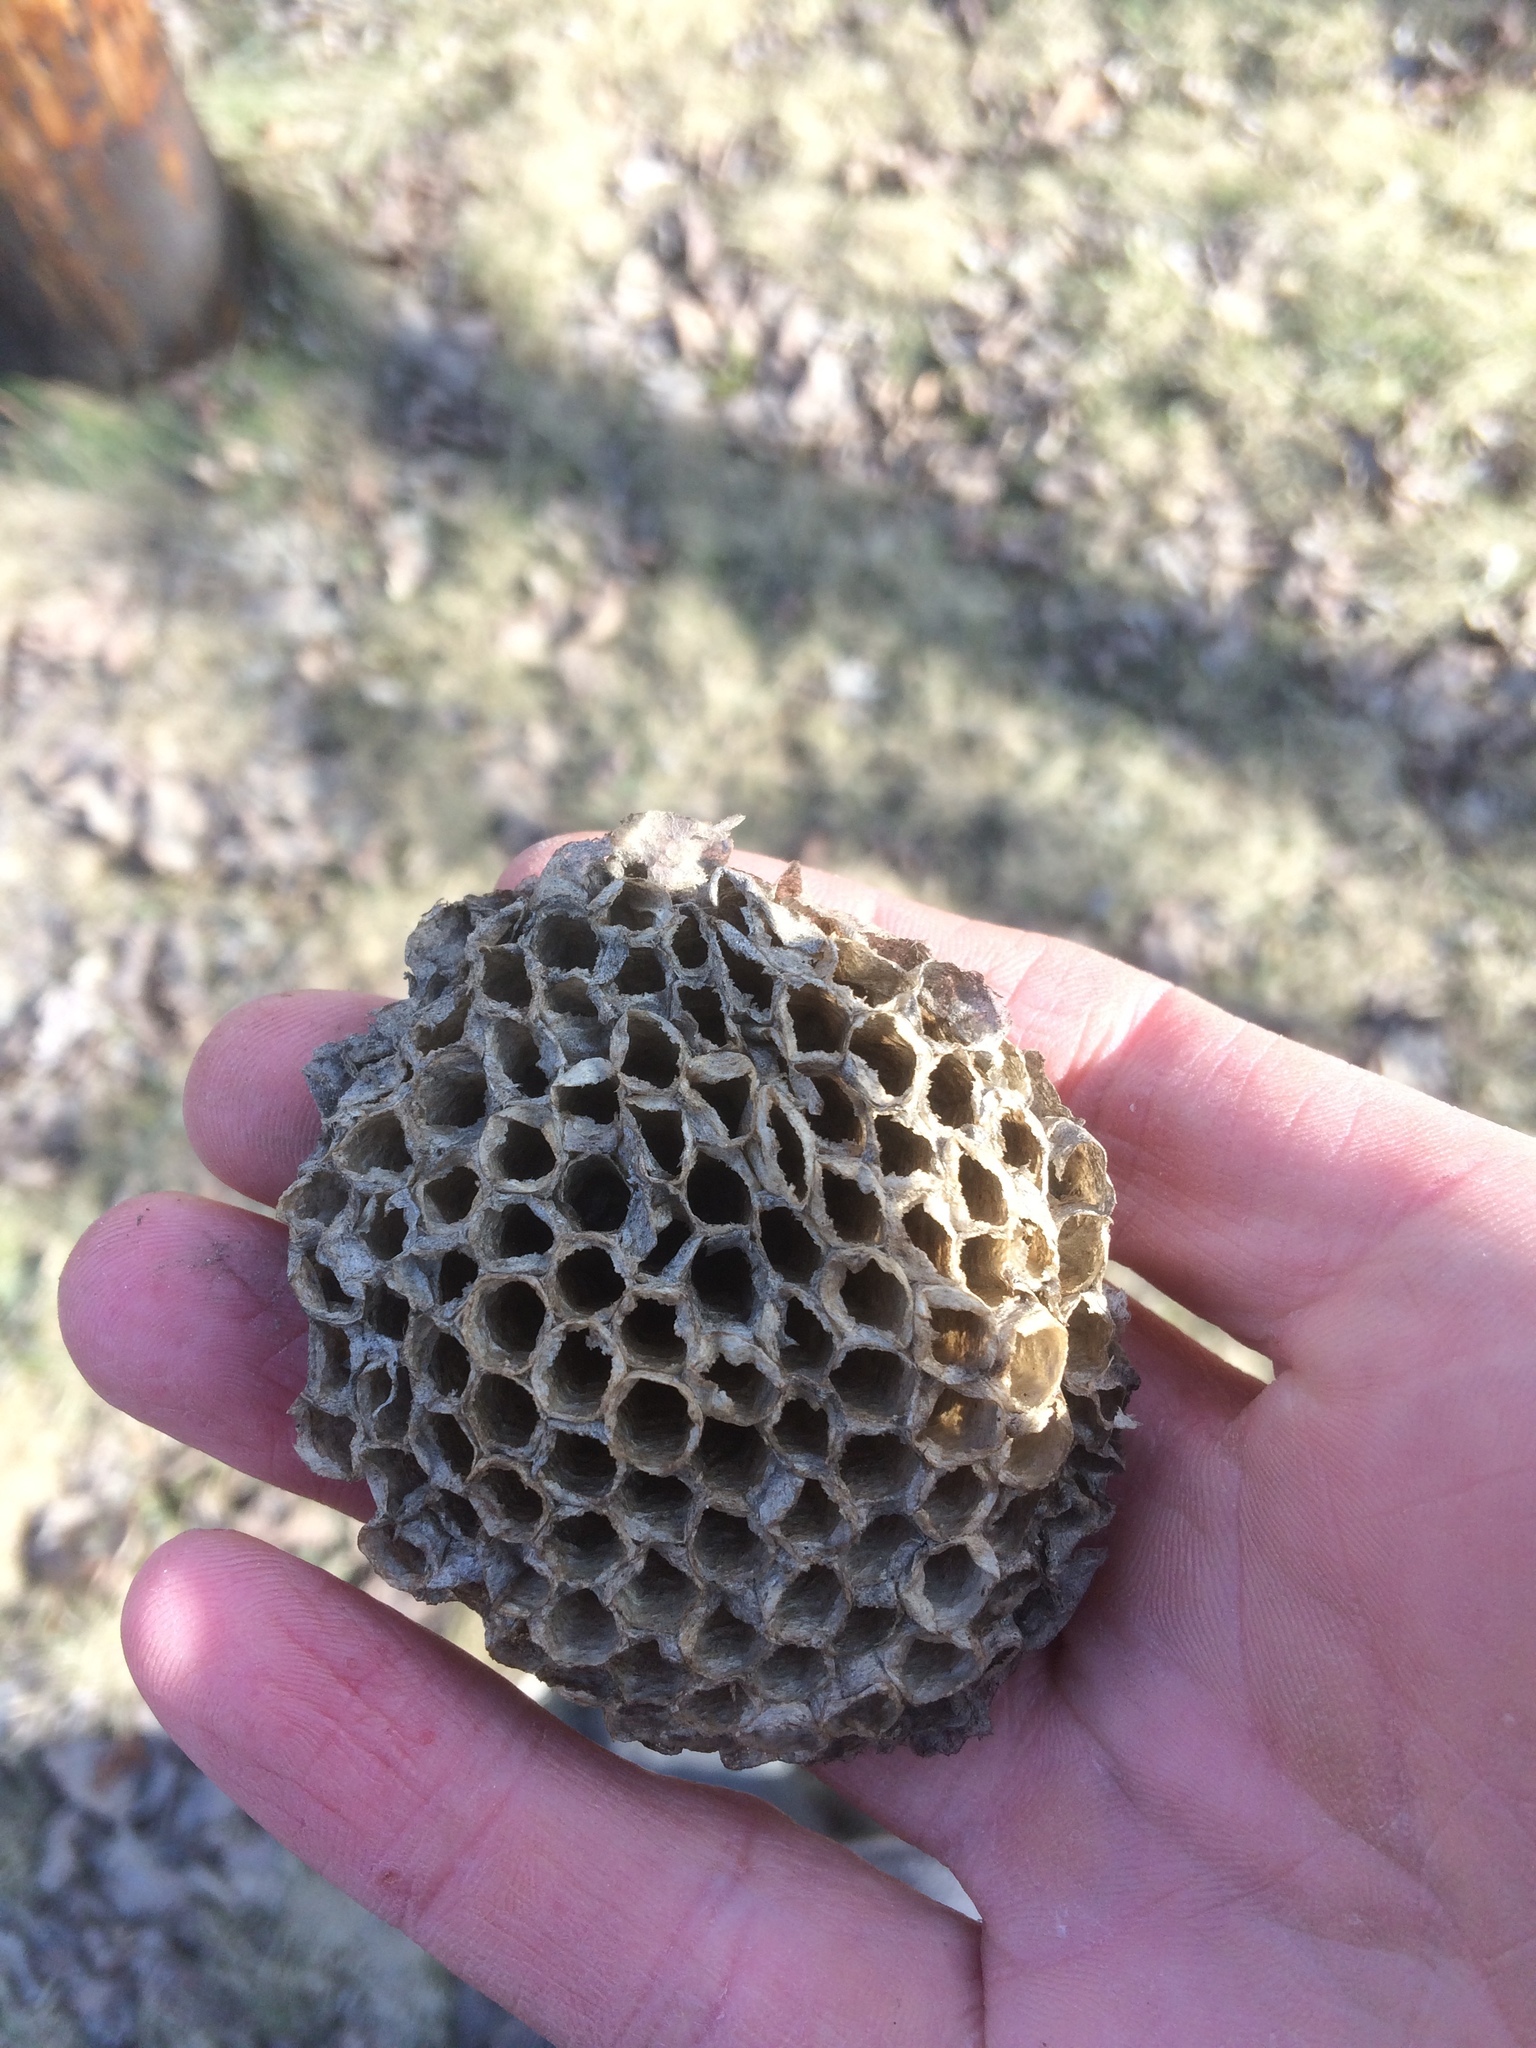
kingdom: Animalia
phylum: Arthropoda
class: Insecta
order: Hymenoptera
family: Eumenidae
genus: Polistes
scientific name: Polistes
